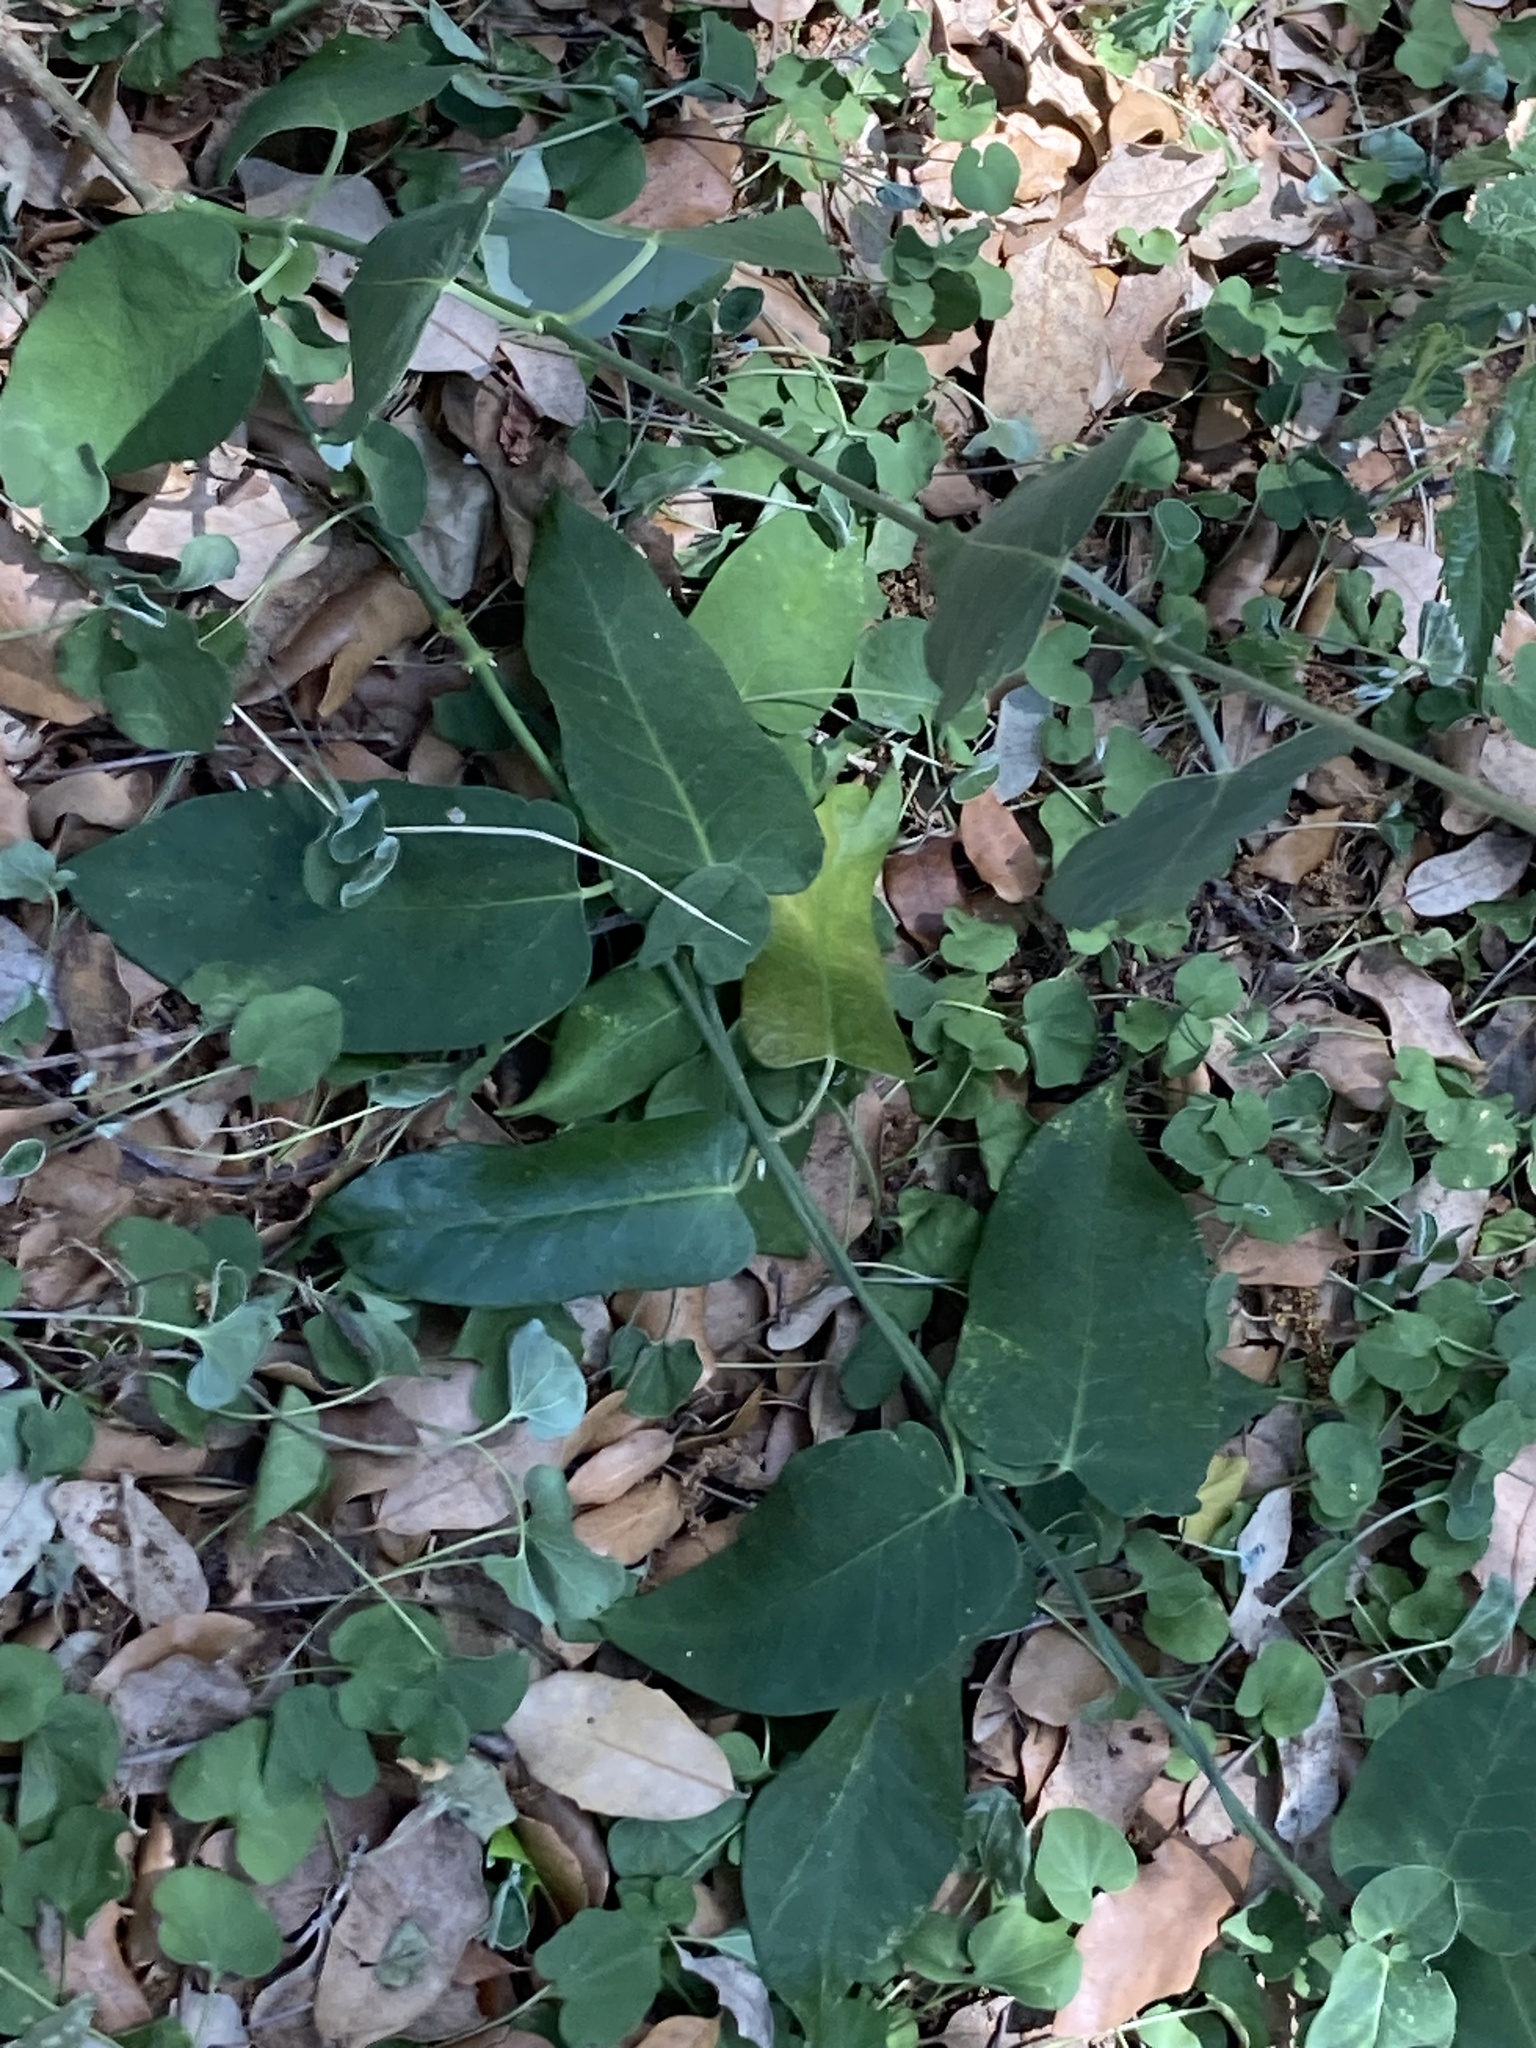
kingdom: Plantae
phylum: Tracheophyta
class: Magnoliopsida
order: Gentianales
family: Apocynaceae
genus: Araujia
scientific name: Araujia sericifera
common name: White bladderflower
